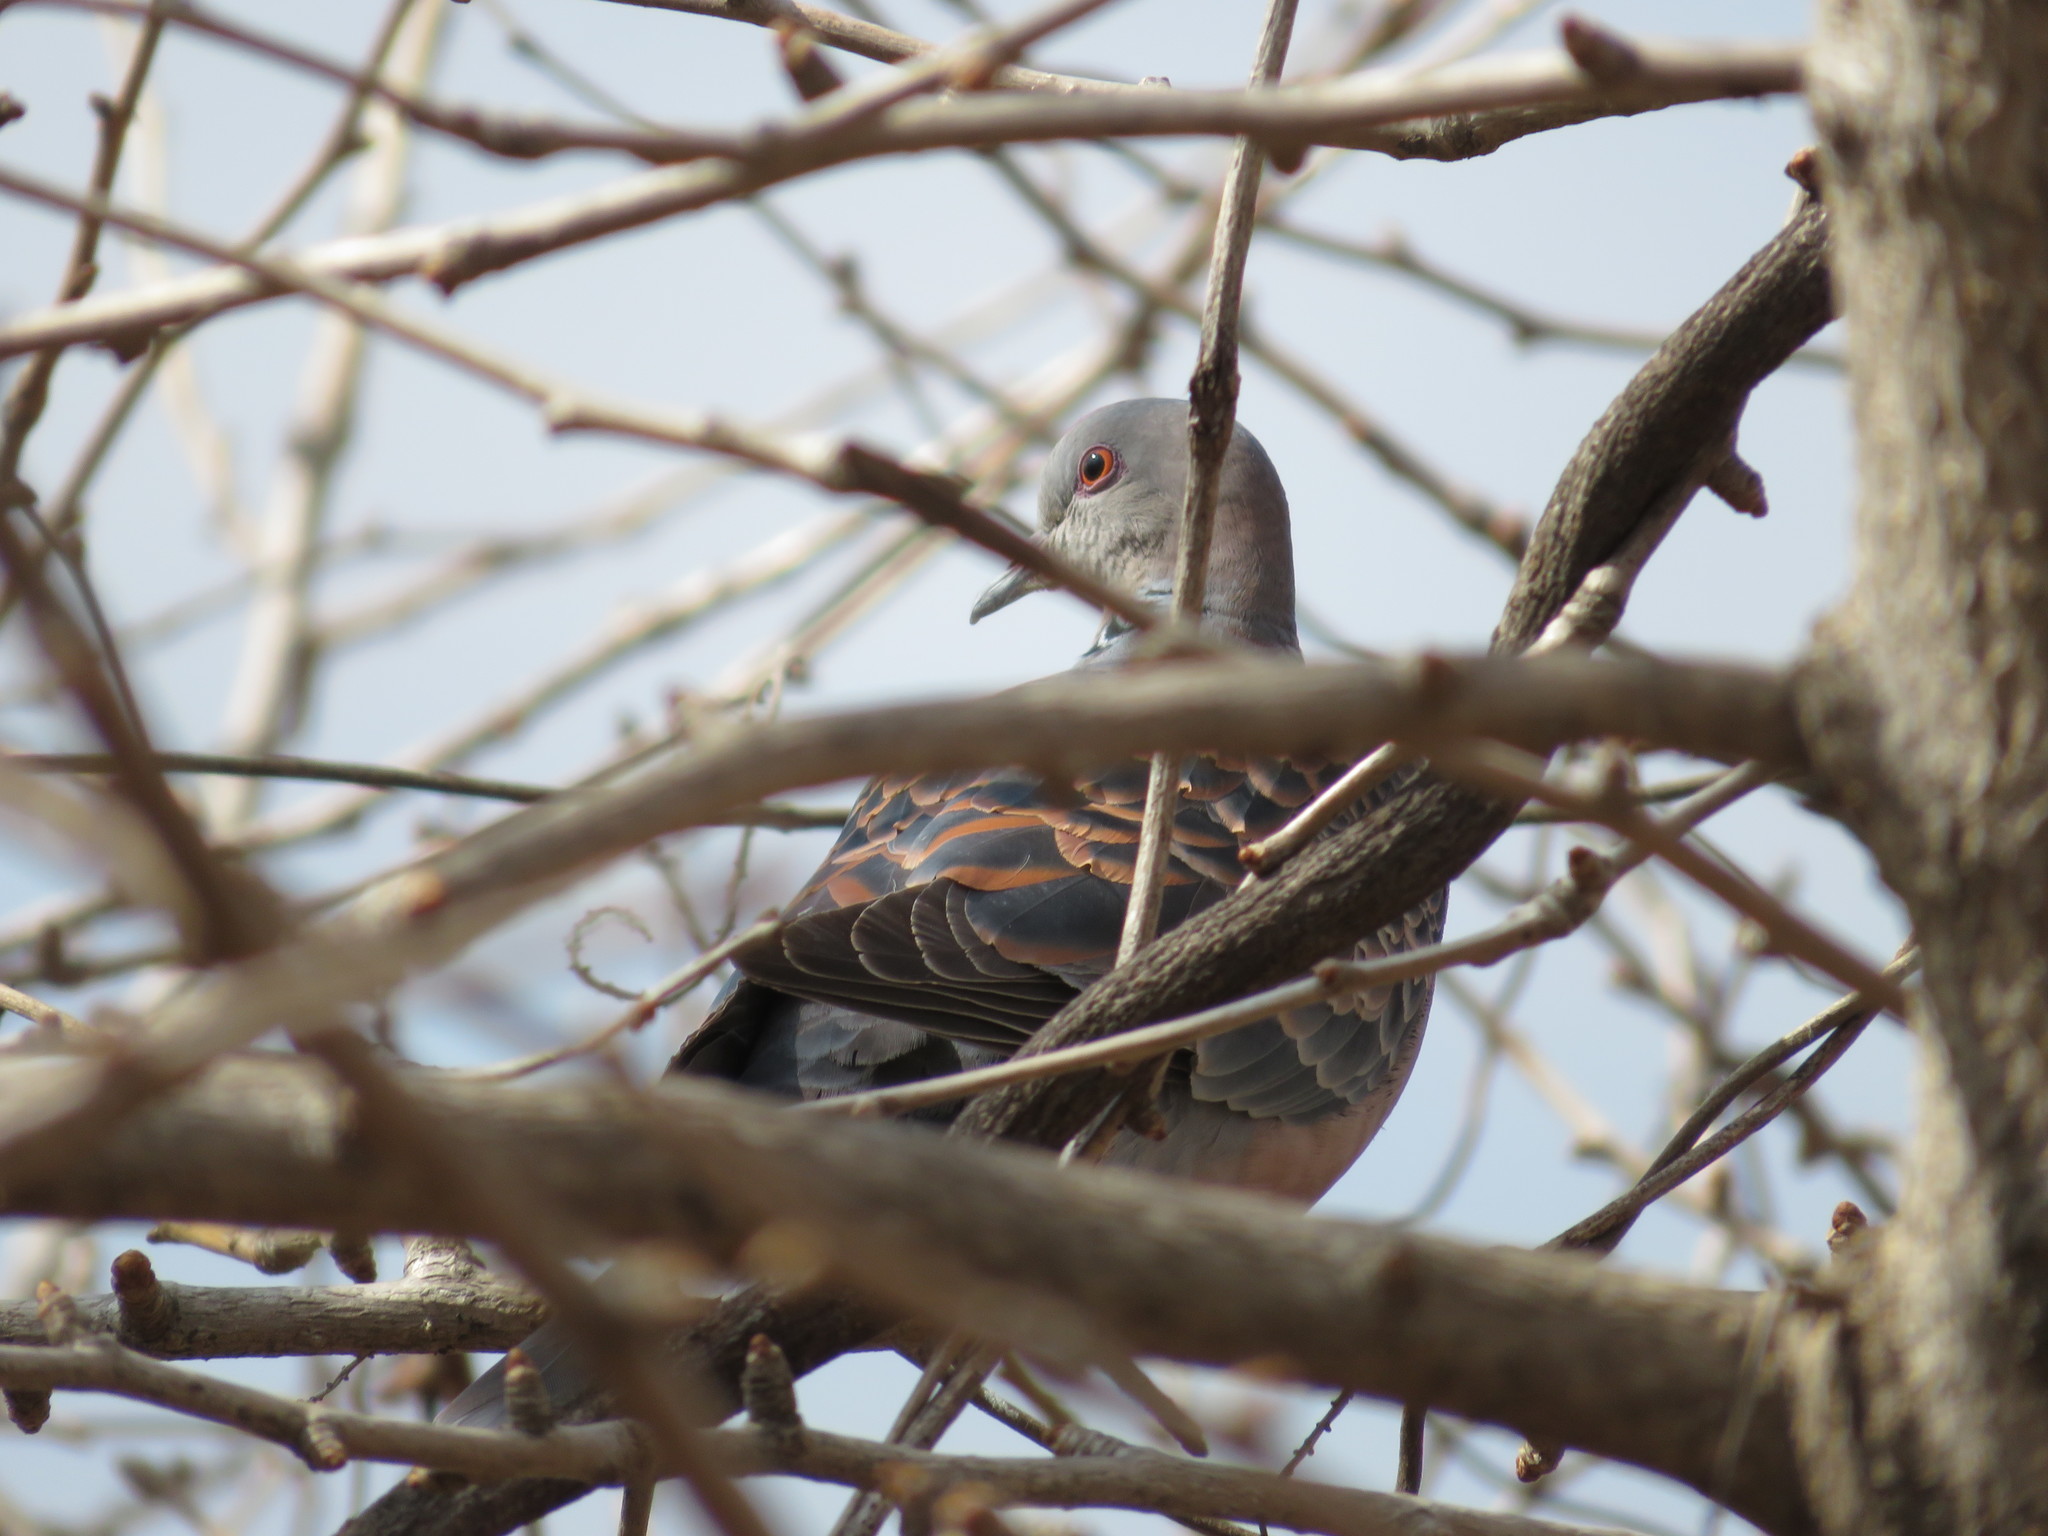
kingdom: Animalia
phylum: Chordata
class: Aves
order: Columbiformes
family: Columbidae
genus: Streptopelia
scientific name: Streptopelia orientalis
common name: Oriental turtle dove
